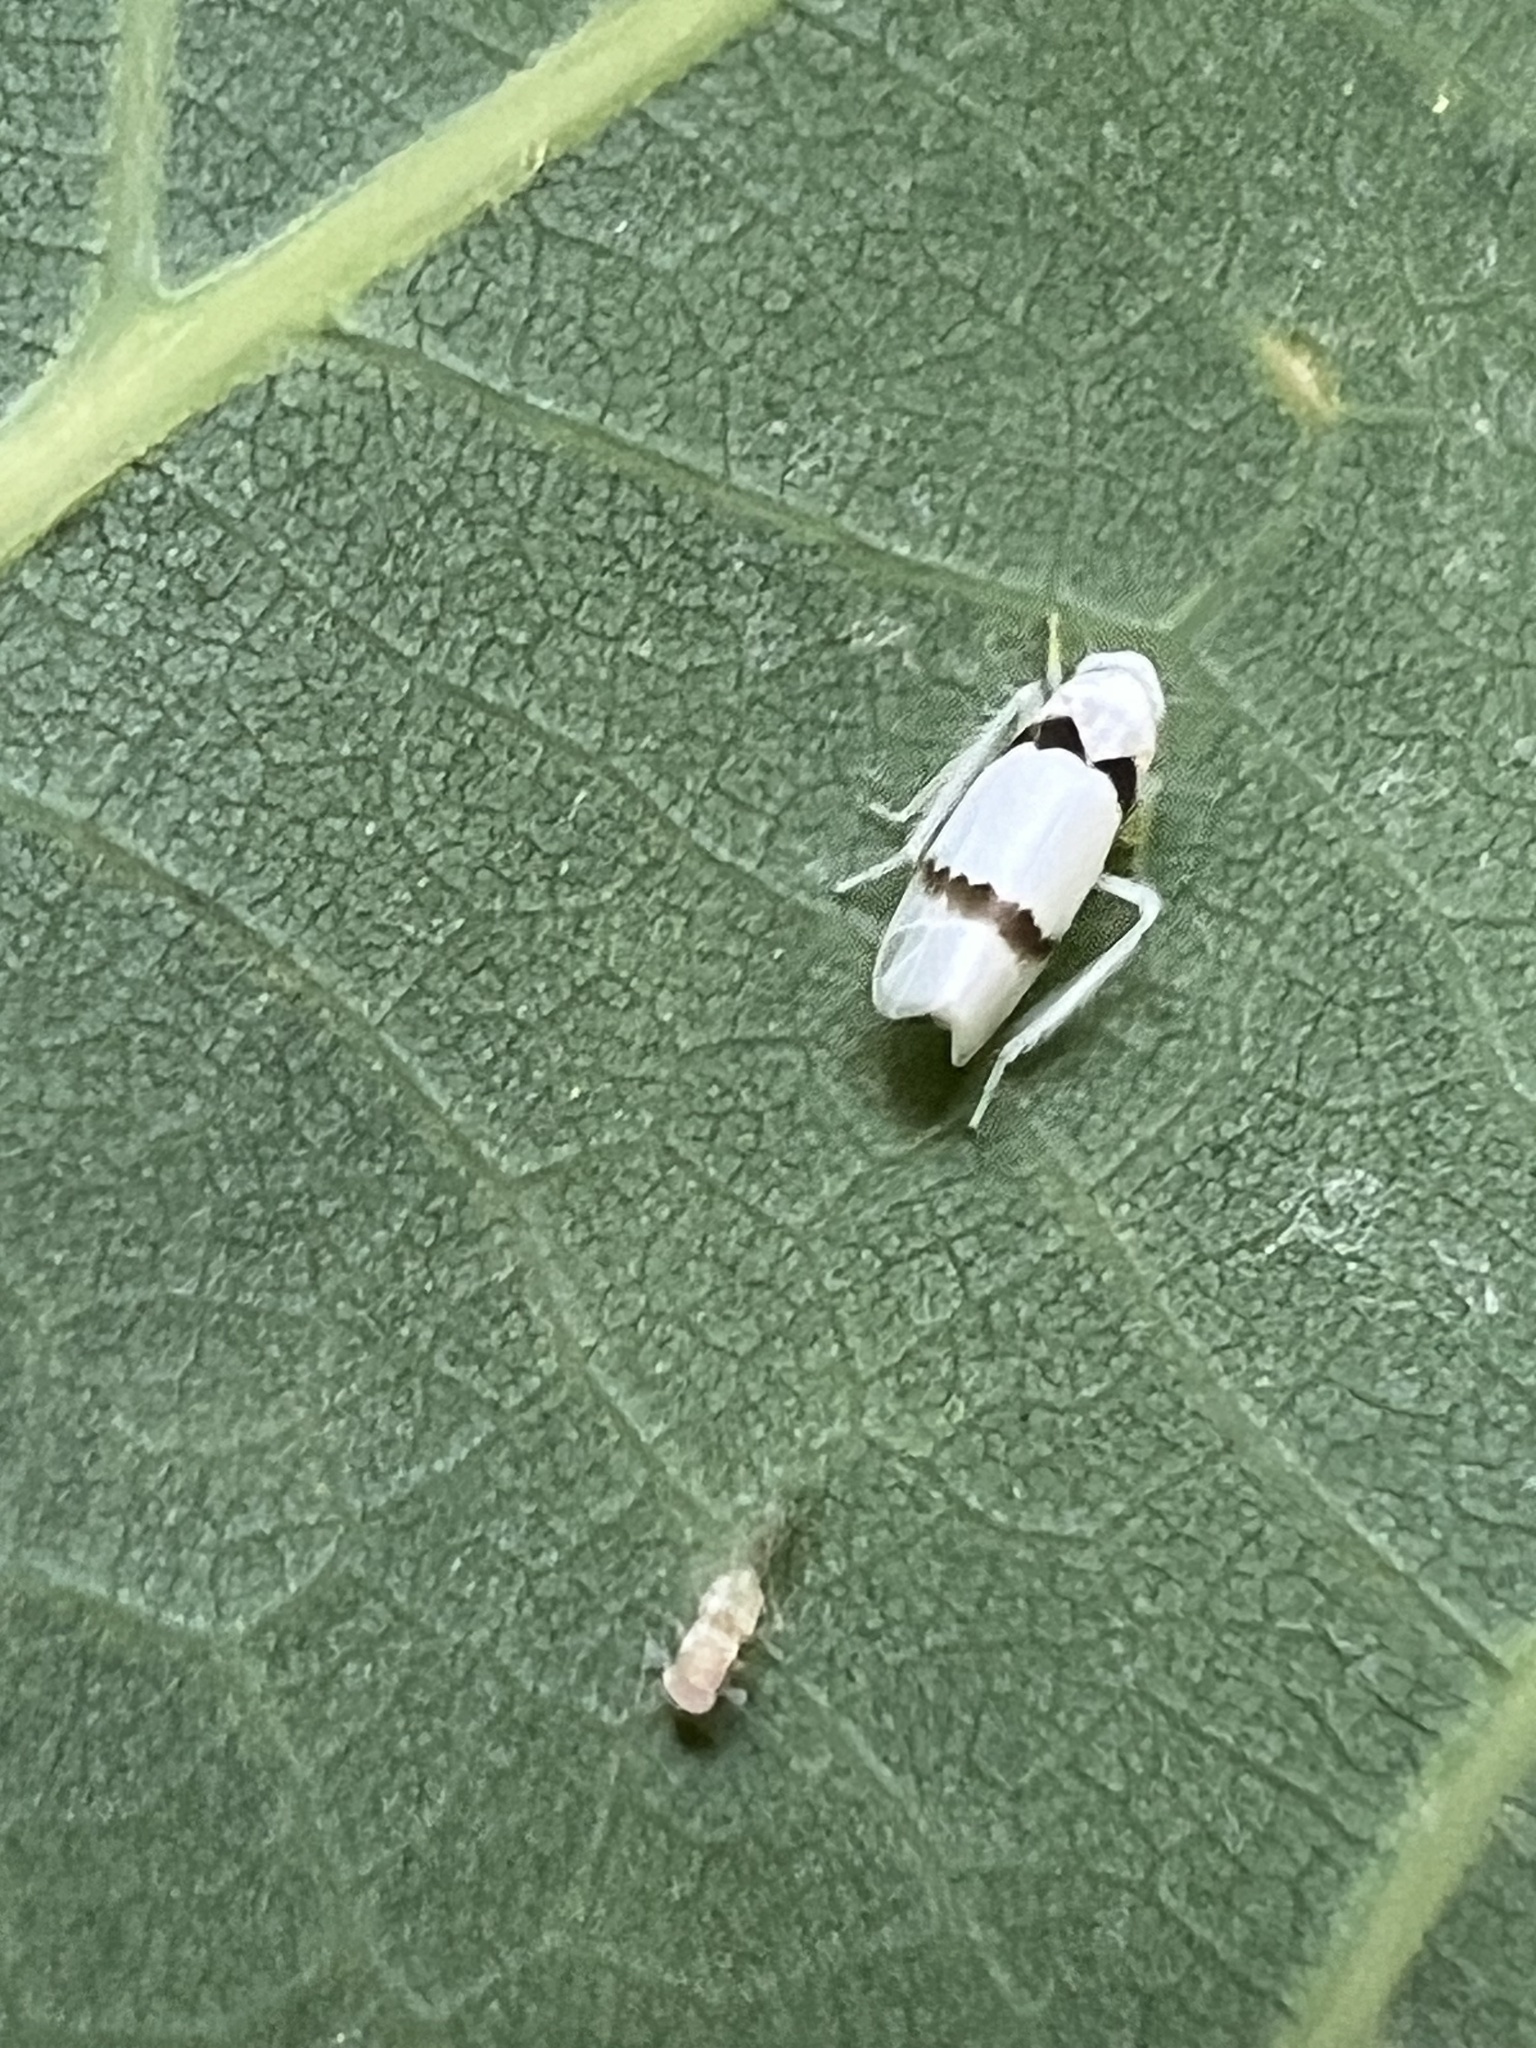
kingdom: Animalia
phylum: Arthropoda
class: Insecta
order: Hemiptera
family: Cicadellidae
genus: Ossiannilssonola
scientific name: Ossiannilssonola hinei
